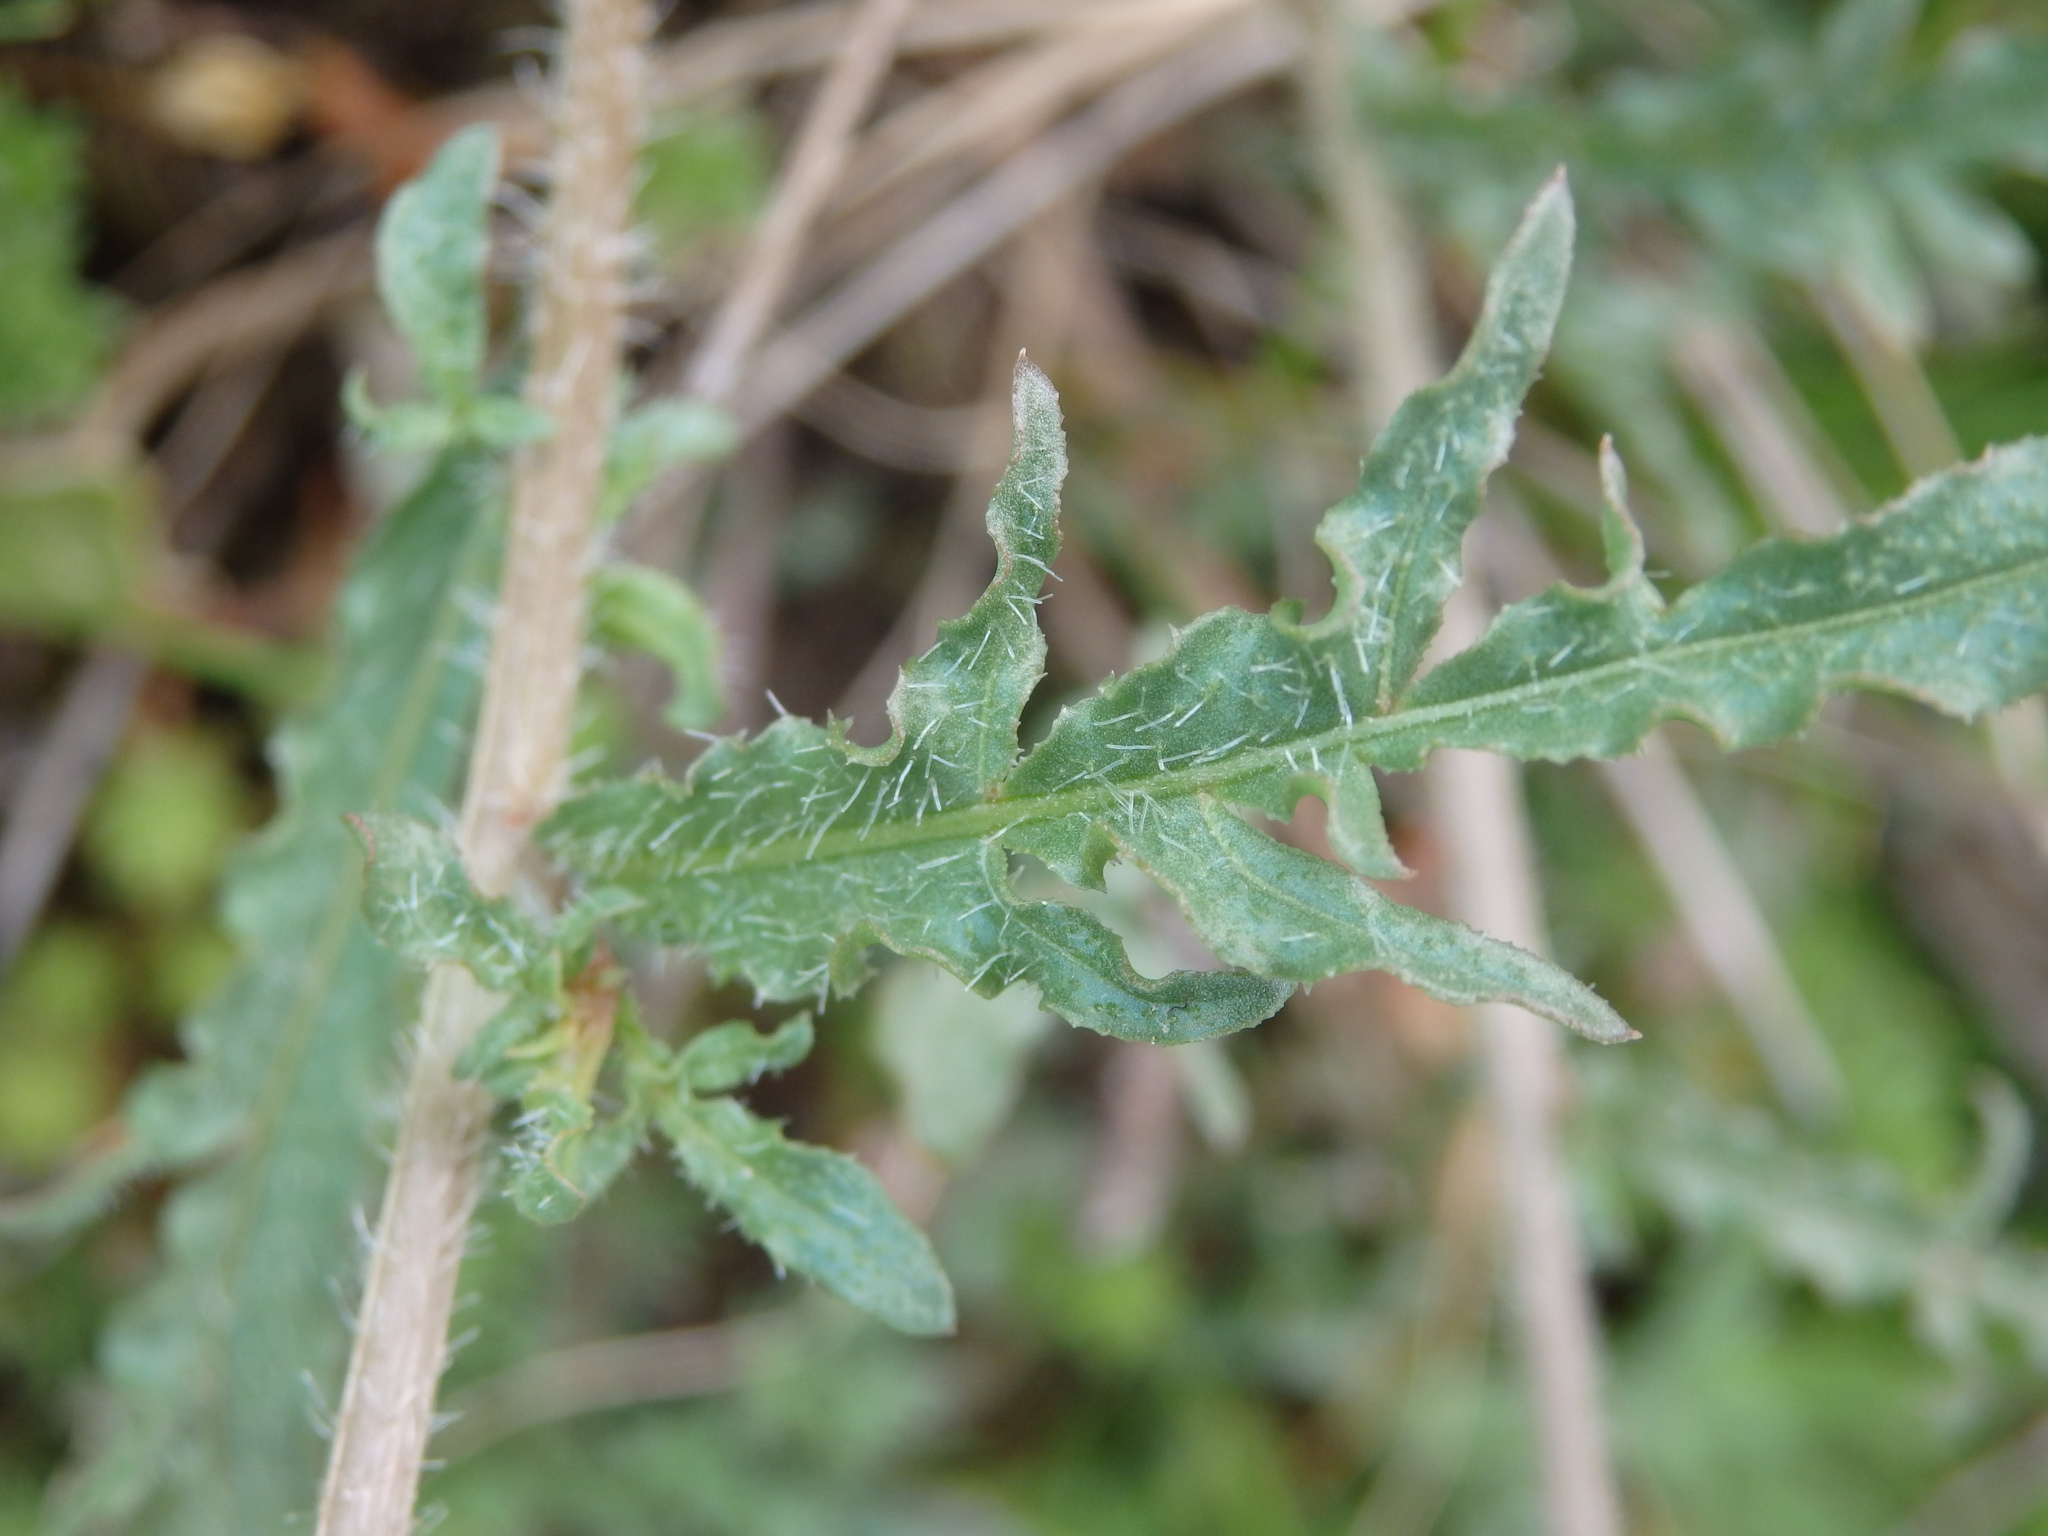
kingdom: Plantae
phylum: Tracheophyta
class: Magnoliopsida
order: Brassicales
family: Resedaceae
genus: Reseda
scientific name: Reseda media
